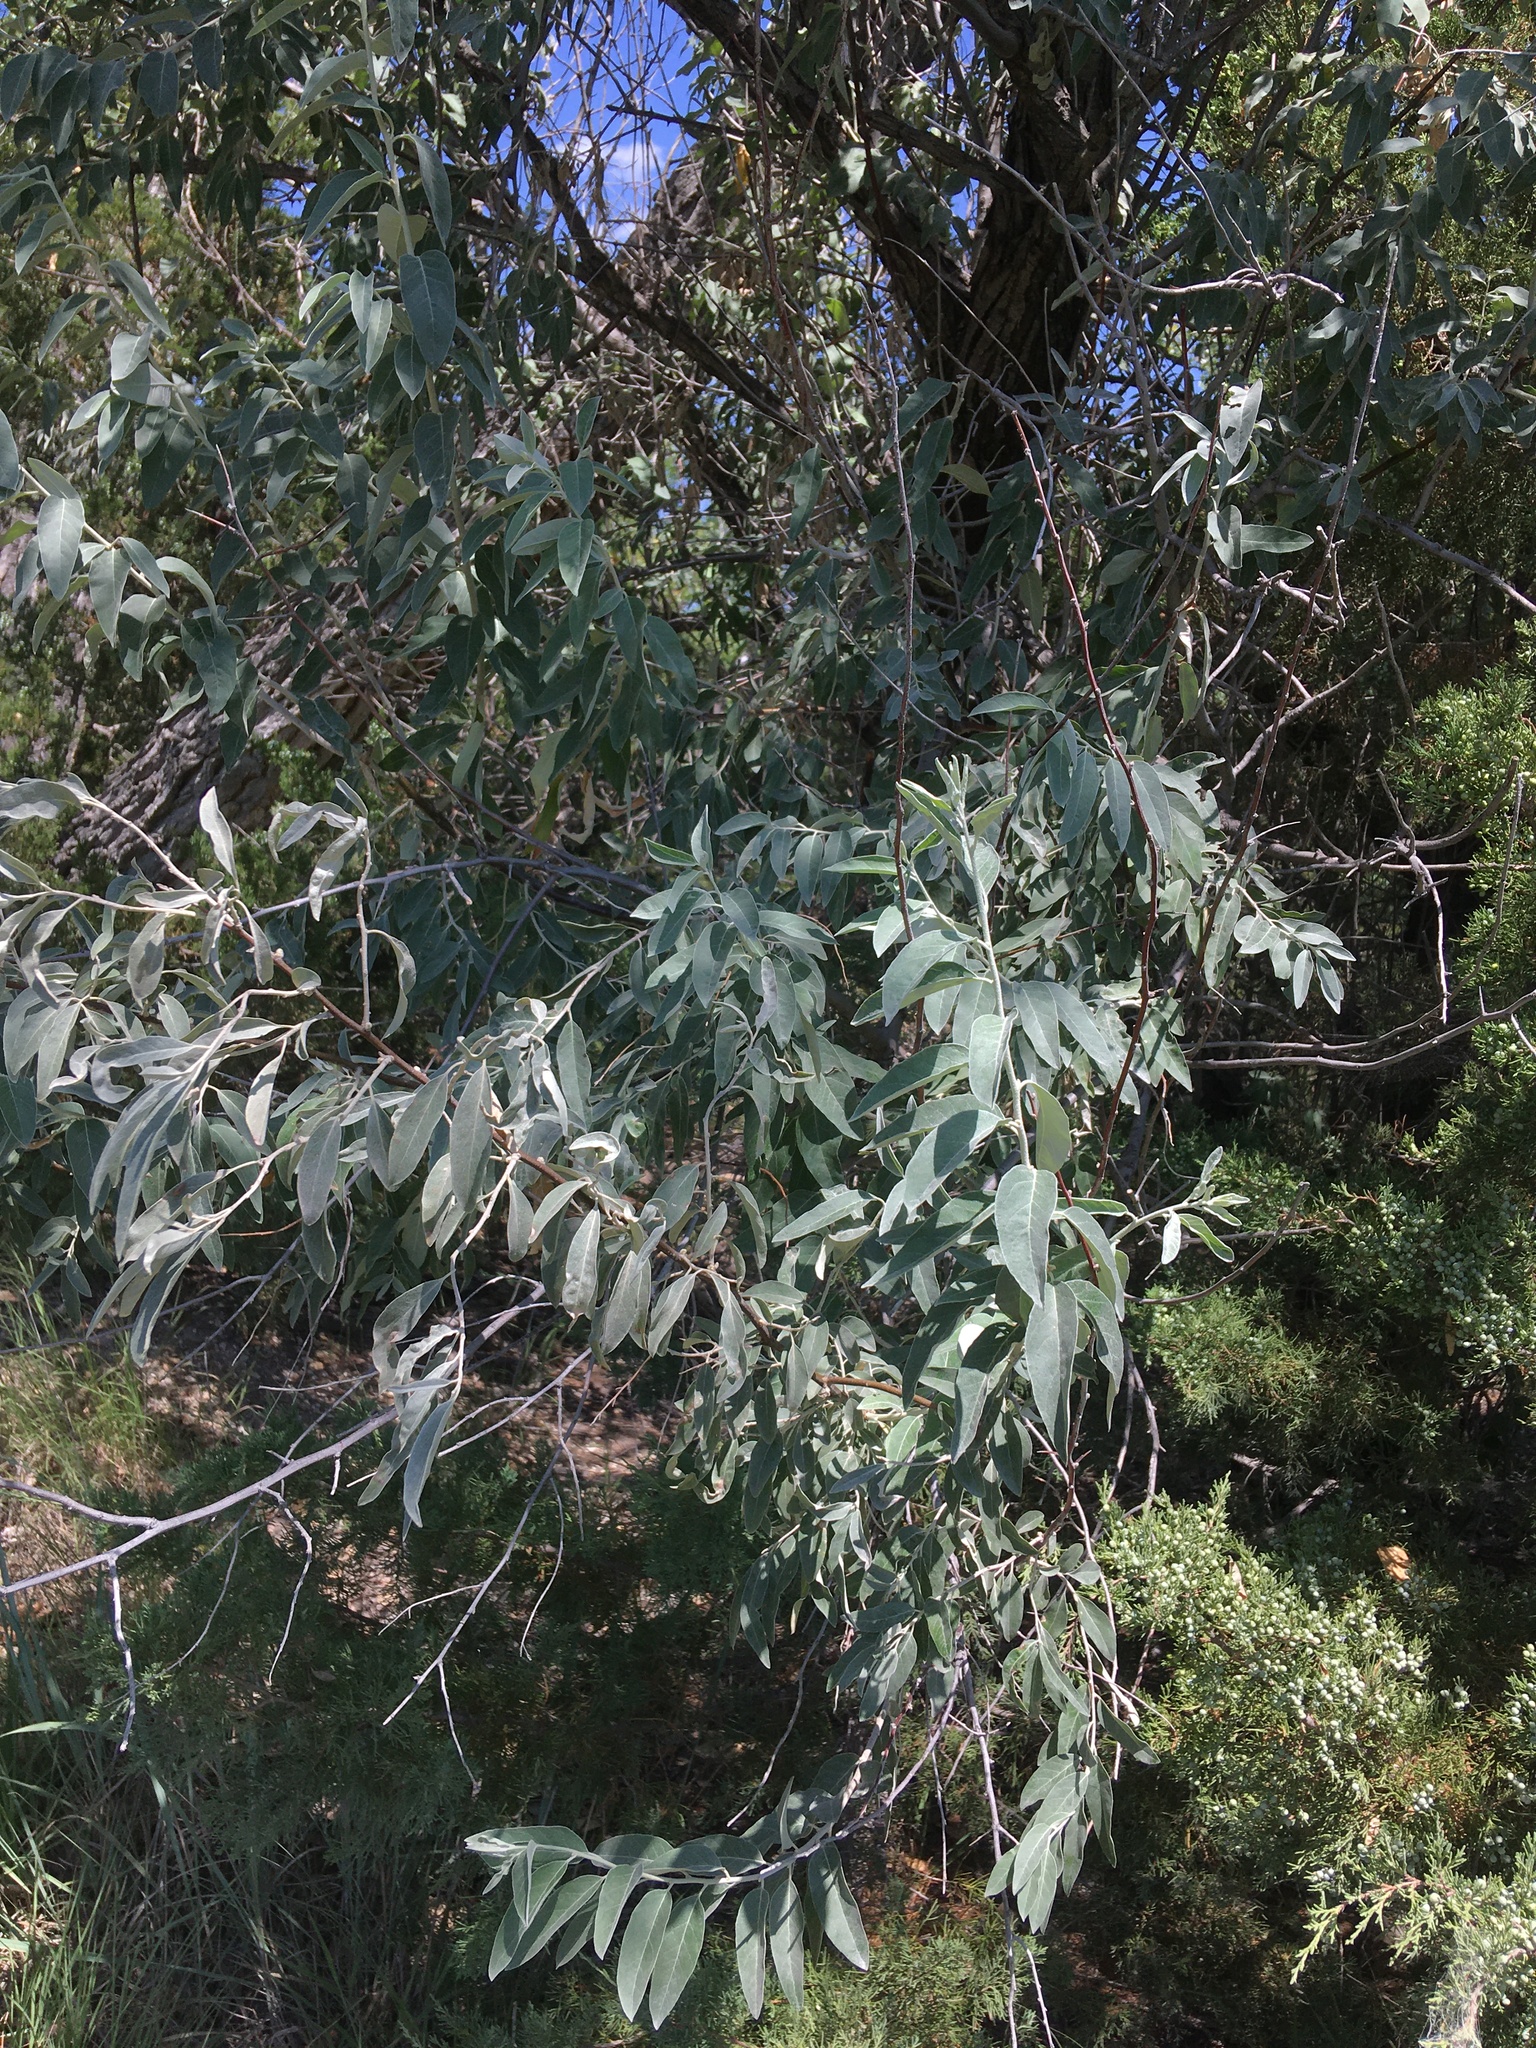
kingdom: Plantae
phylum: Tracheophyta
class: Magnoliopsida
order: Rosales
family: Elaeagnaceae
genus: Elaeagnus
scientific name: Elaeagnus angustifolia
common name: Russian olive
